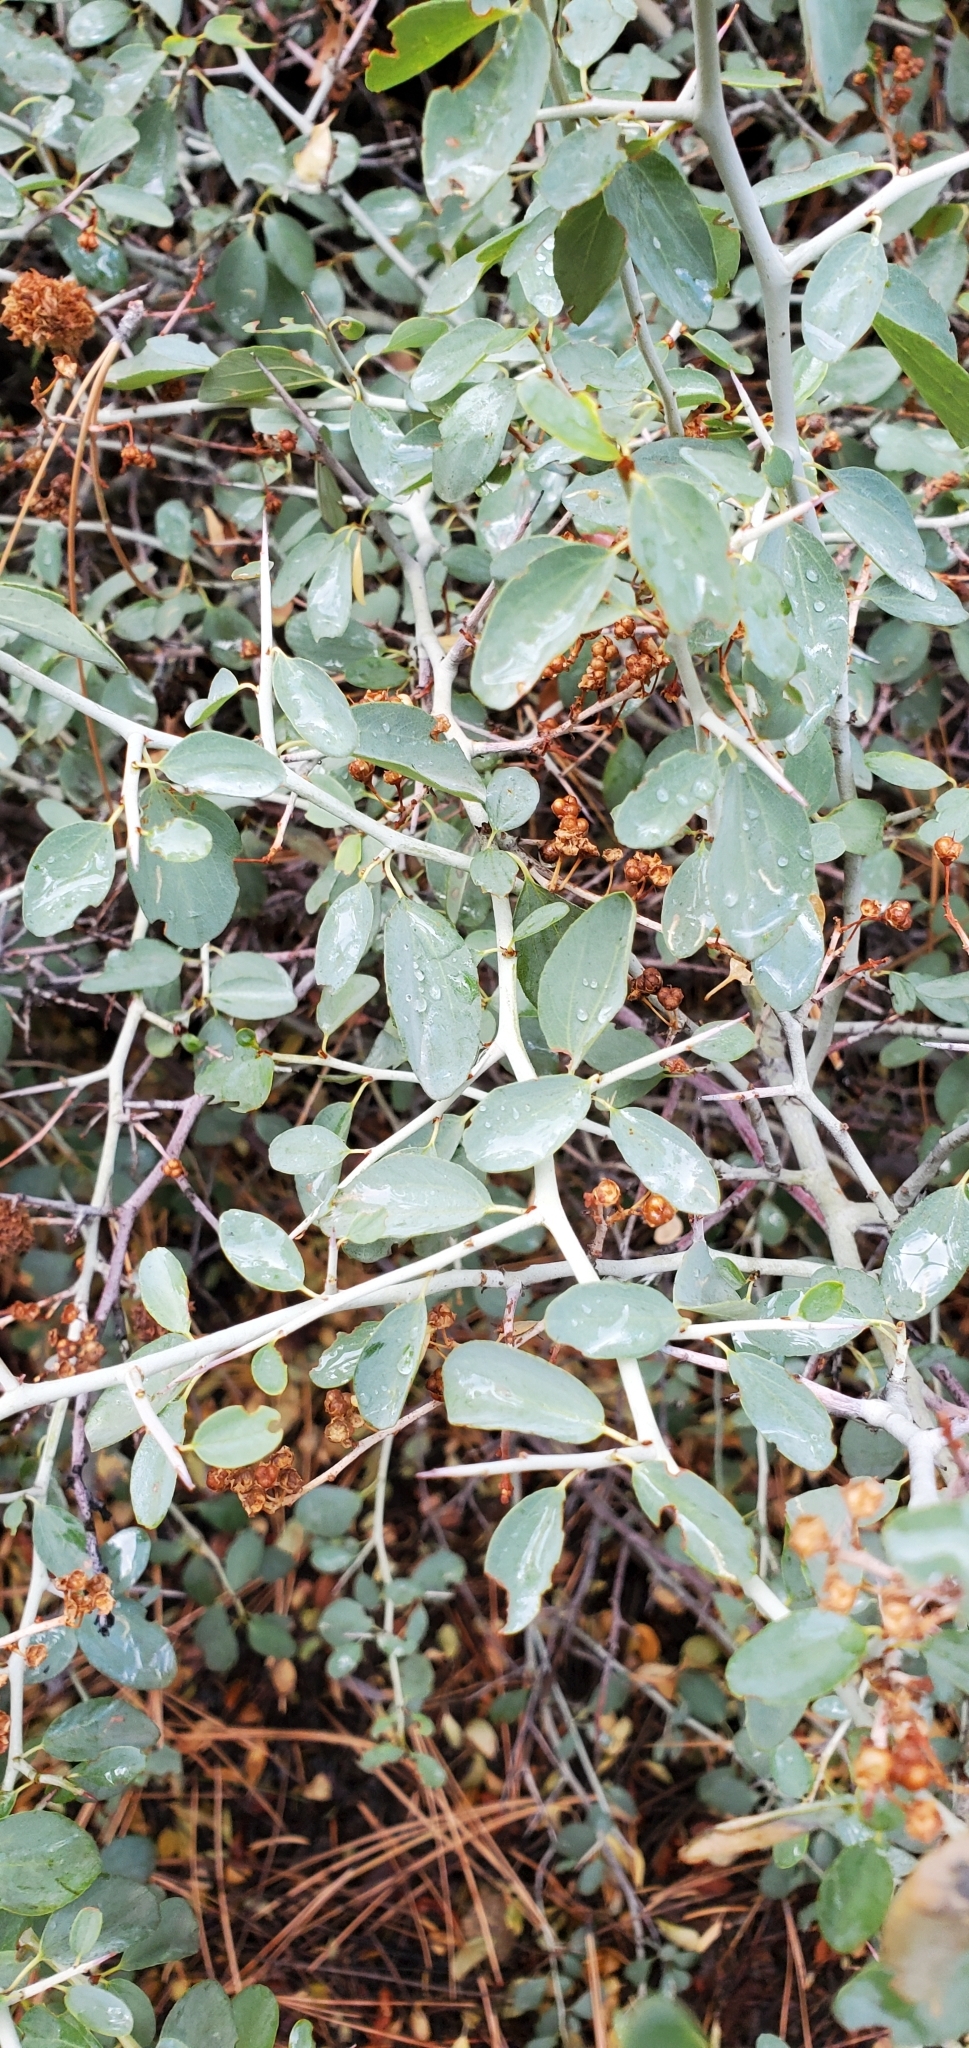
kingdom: Plantae
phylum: Tracheophyta
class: Magnoliopsida
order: Rosales
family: Rhamnaceae
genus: Ceanothus
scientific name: Ceanothus cordulatus
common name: Mountain whitethorn
